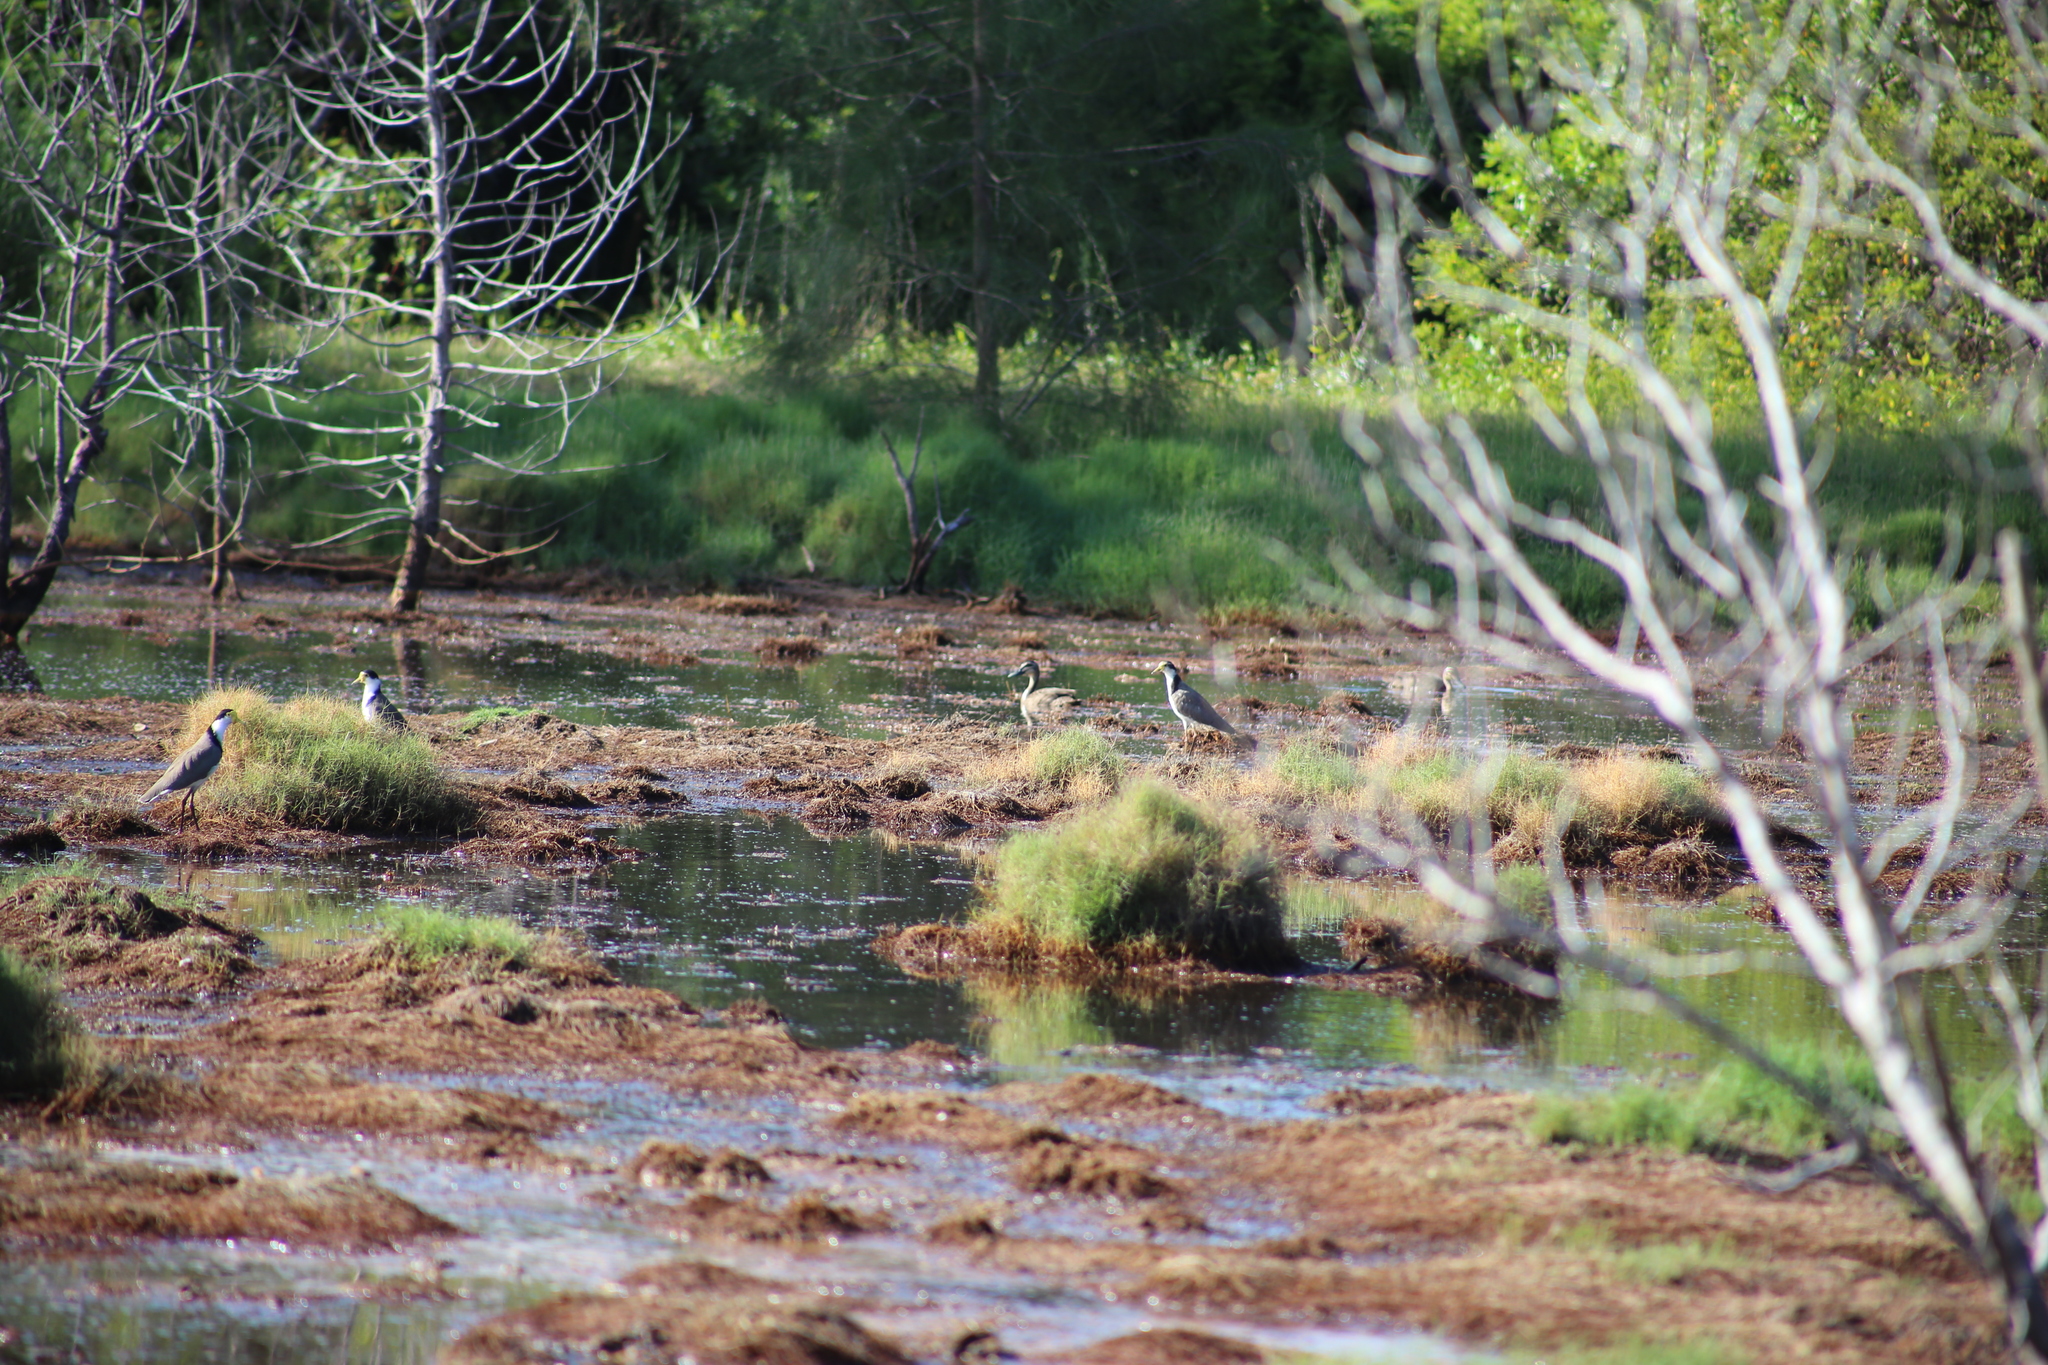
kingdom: Animalia
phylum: Chordata
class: Aves
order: Charadriiformes
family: Charadriidae
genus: Vanellus
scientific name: Vanellus miles
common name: Masked lapwing
